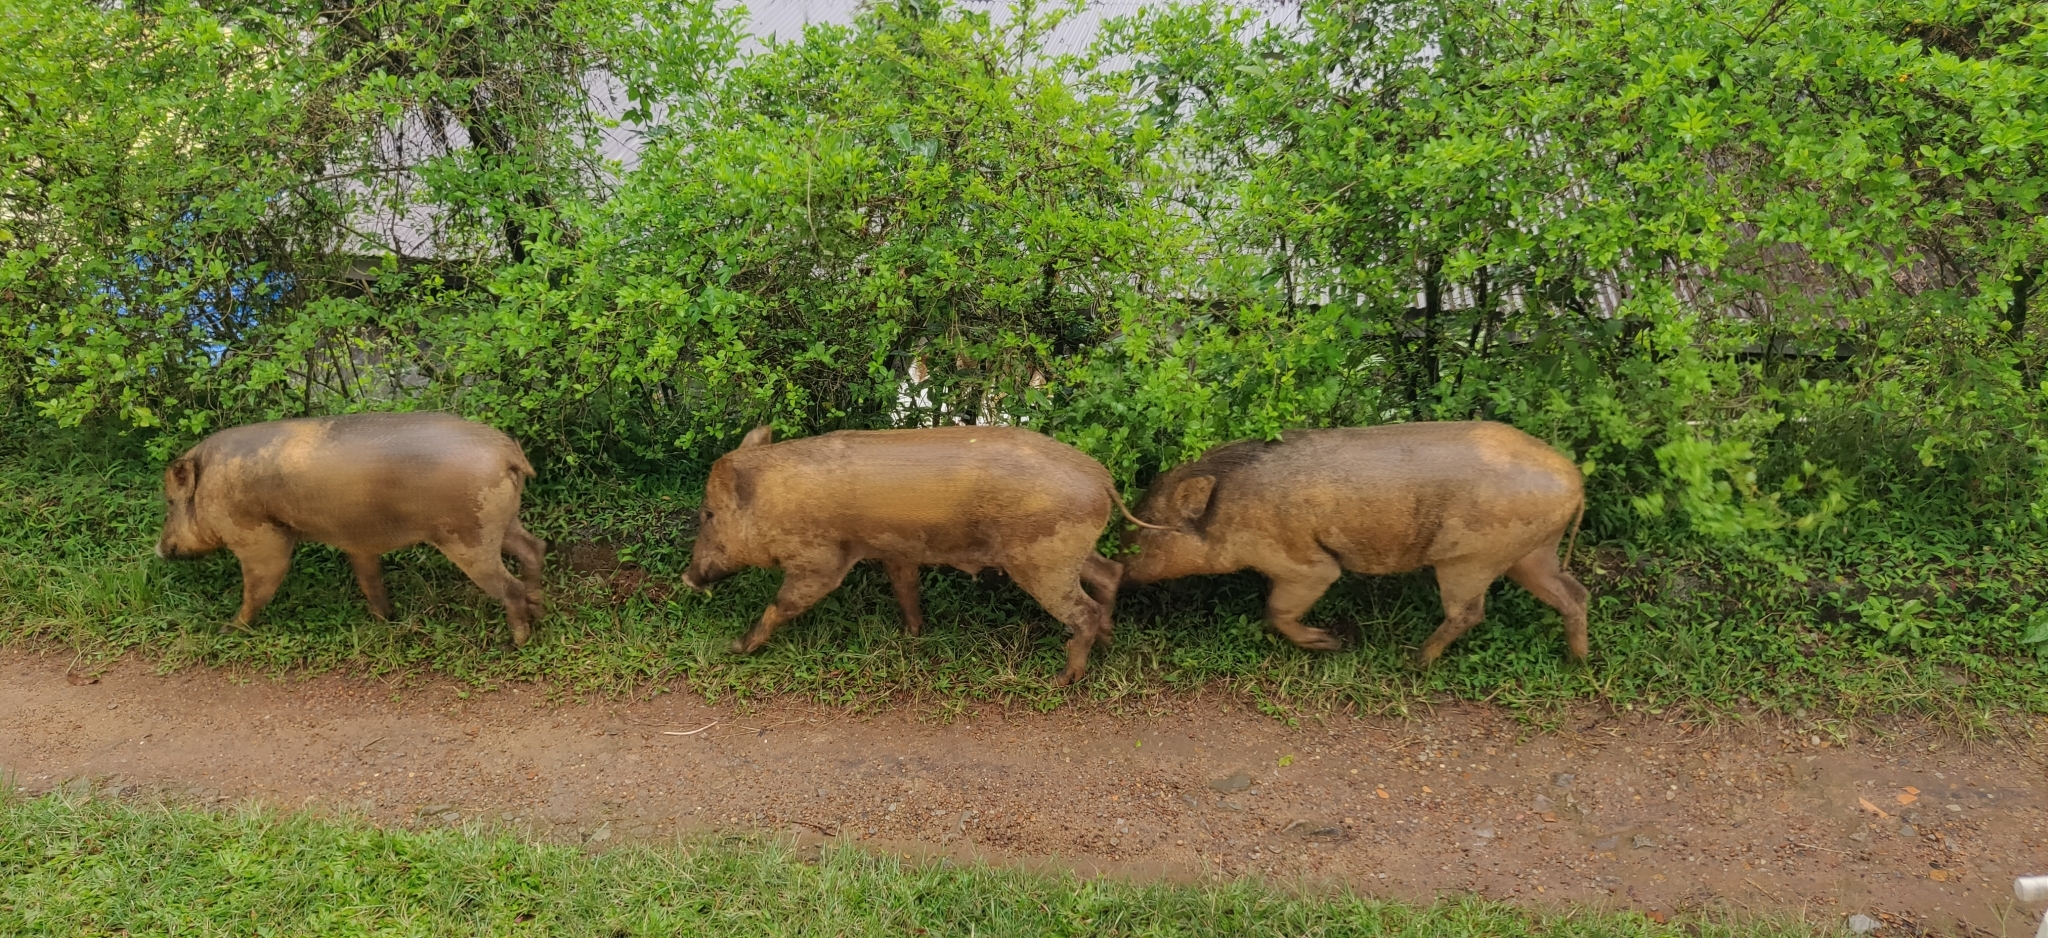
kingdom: Animalia
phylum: Chordata
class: Mammalia
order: Artiodactyla
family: Suidae
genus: Sus
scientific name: Sus scrofa
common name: Wild boar
